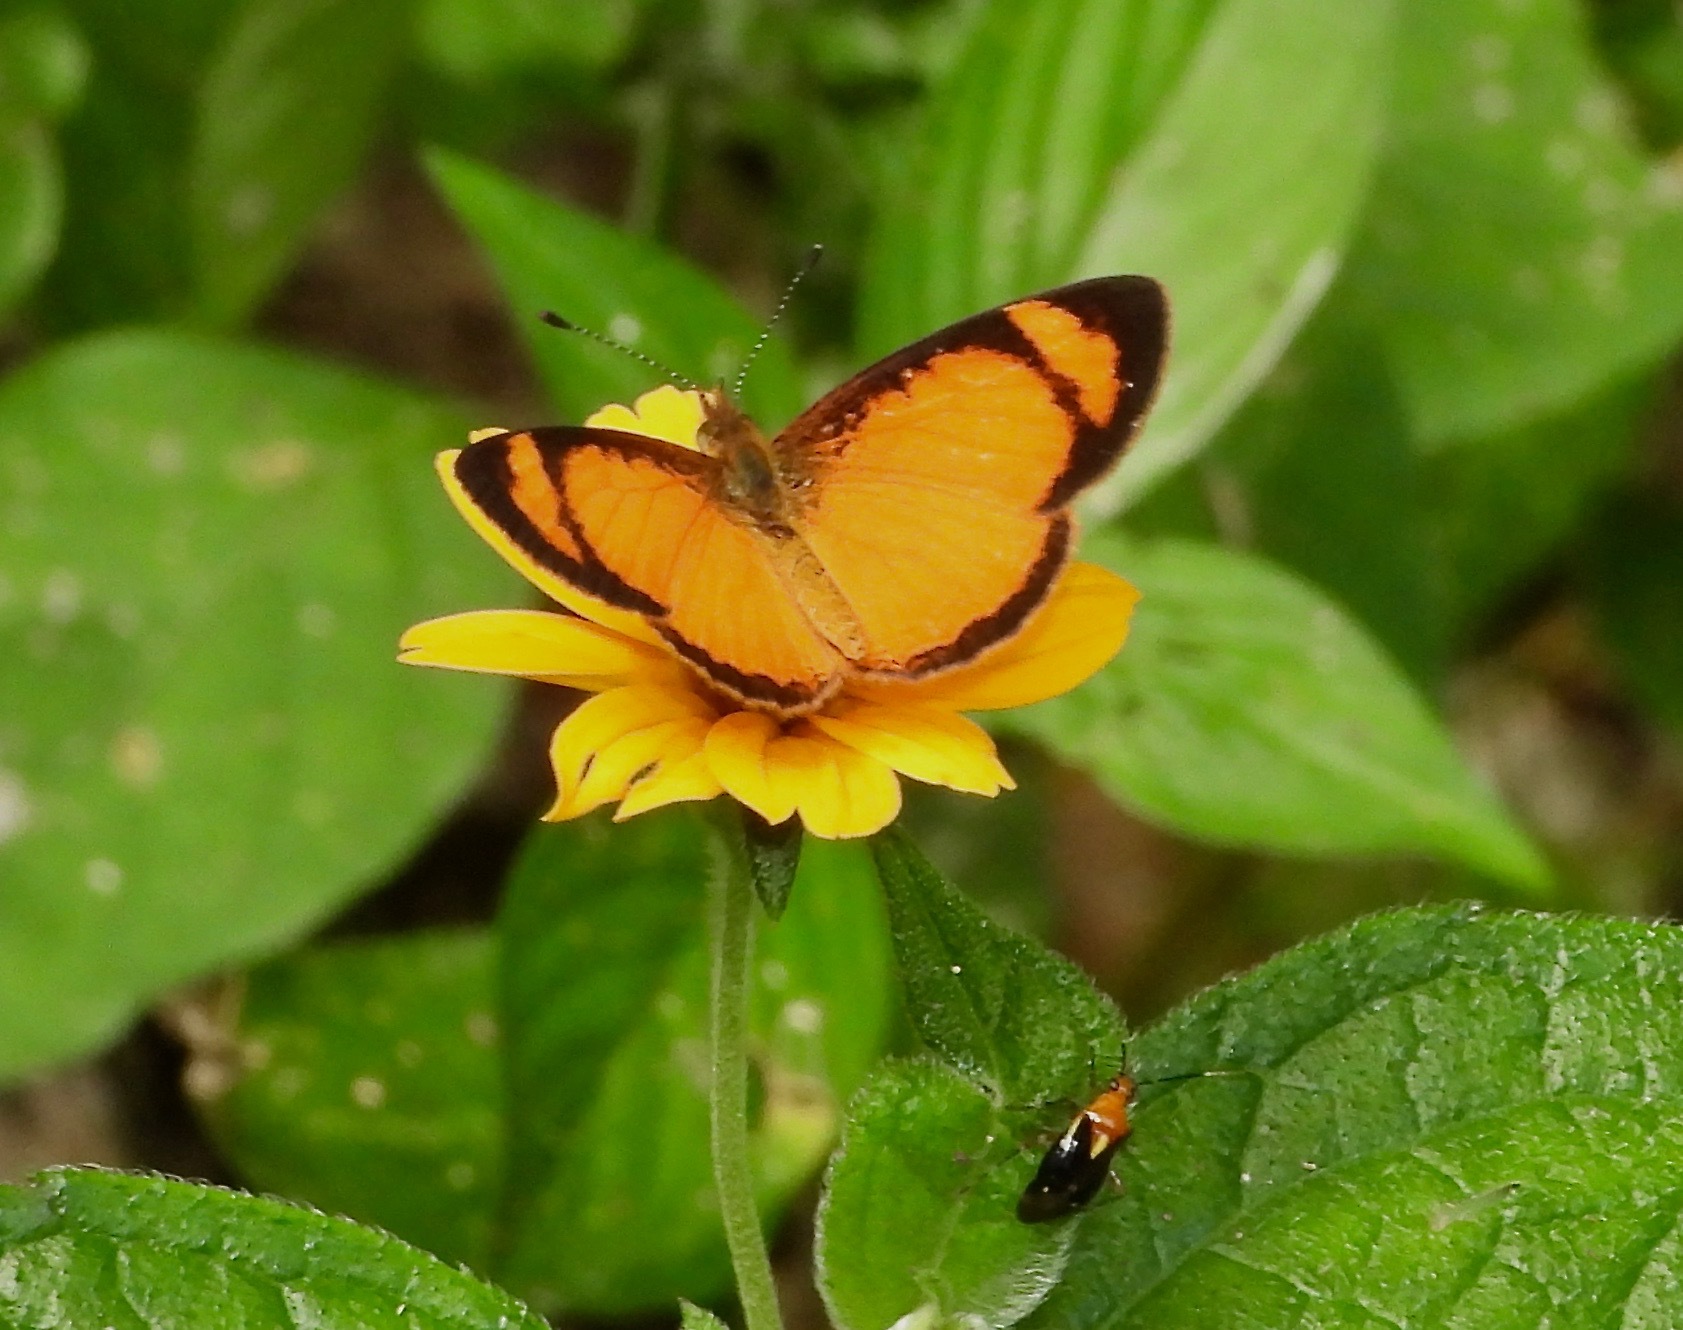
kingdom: Animalia
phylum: Arthropoda
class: Insecta
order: Lepidoptera
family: Nymphalidae
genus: Tegosa
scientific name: Tegosa anieta
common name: Black-bordered crescent
